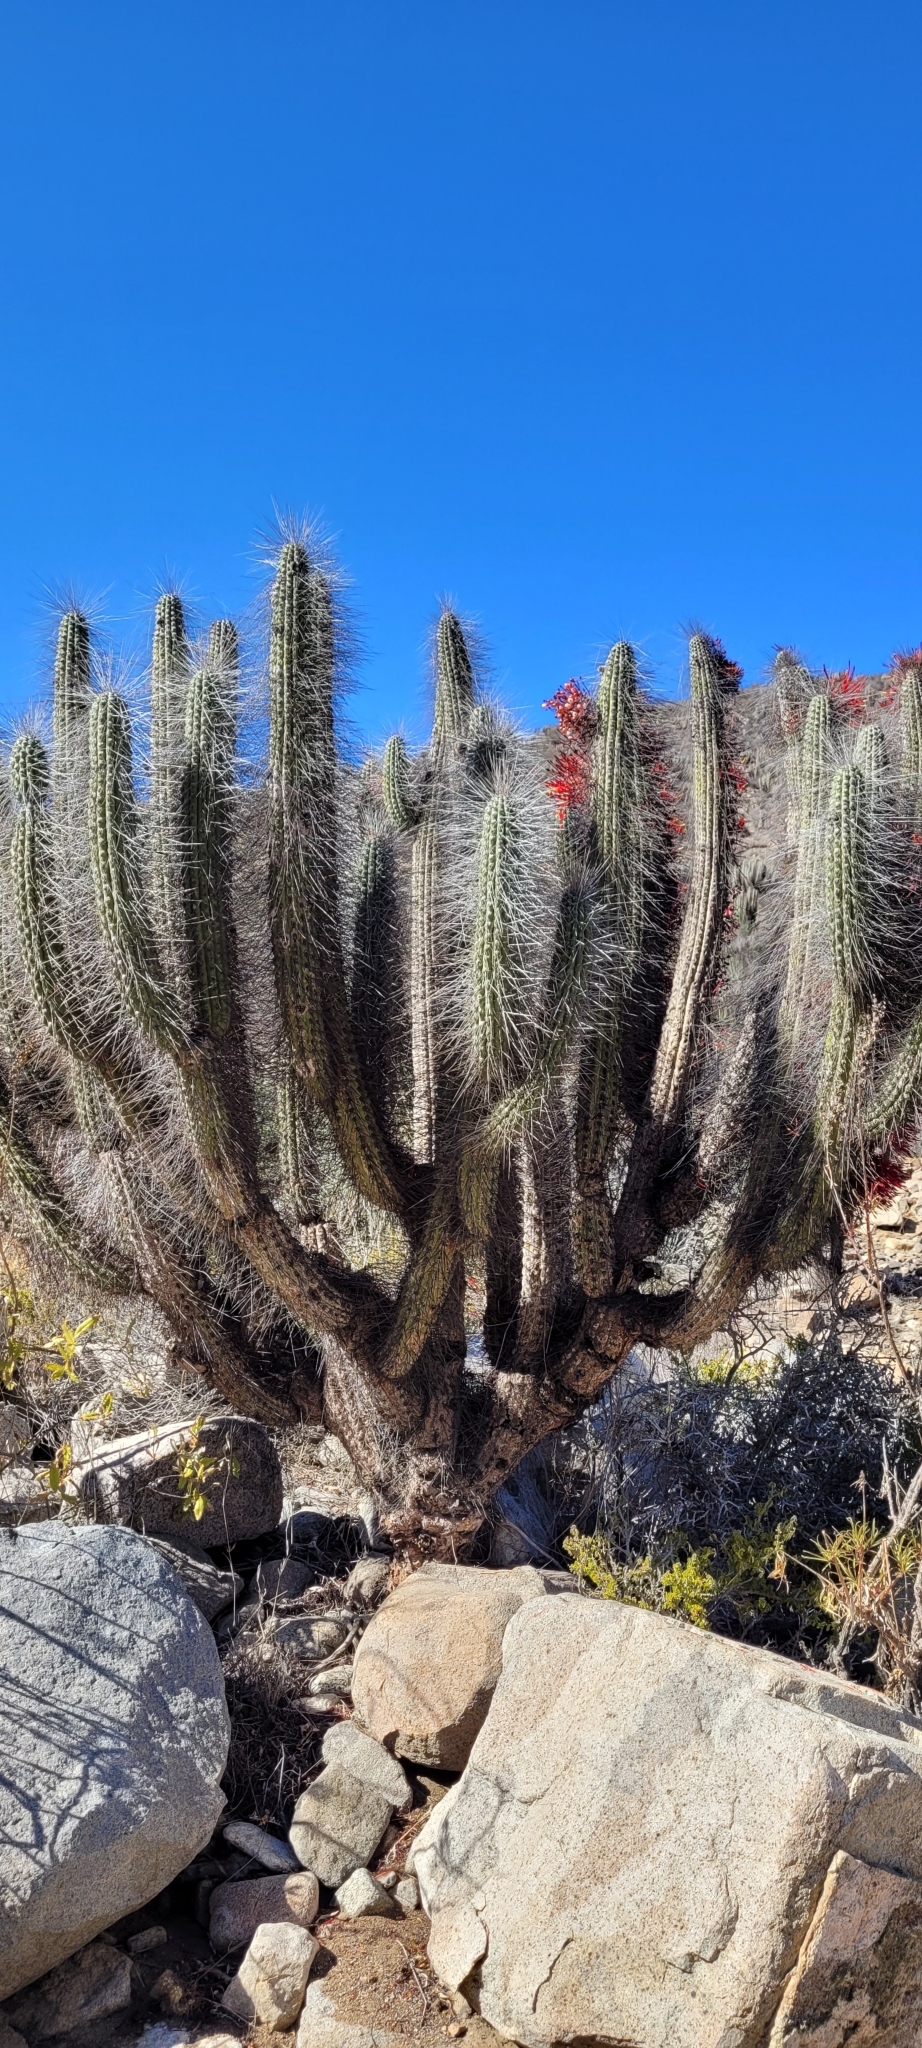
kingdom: Plantae
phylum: Tracheophyta
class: Magnoliopsida
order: Caryophyllales
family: Cactaceae
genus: Eulychnia
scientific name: Eulychnia acida
